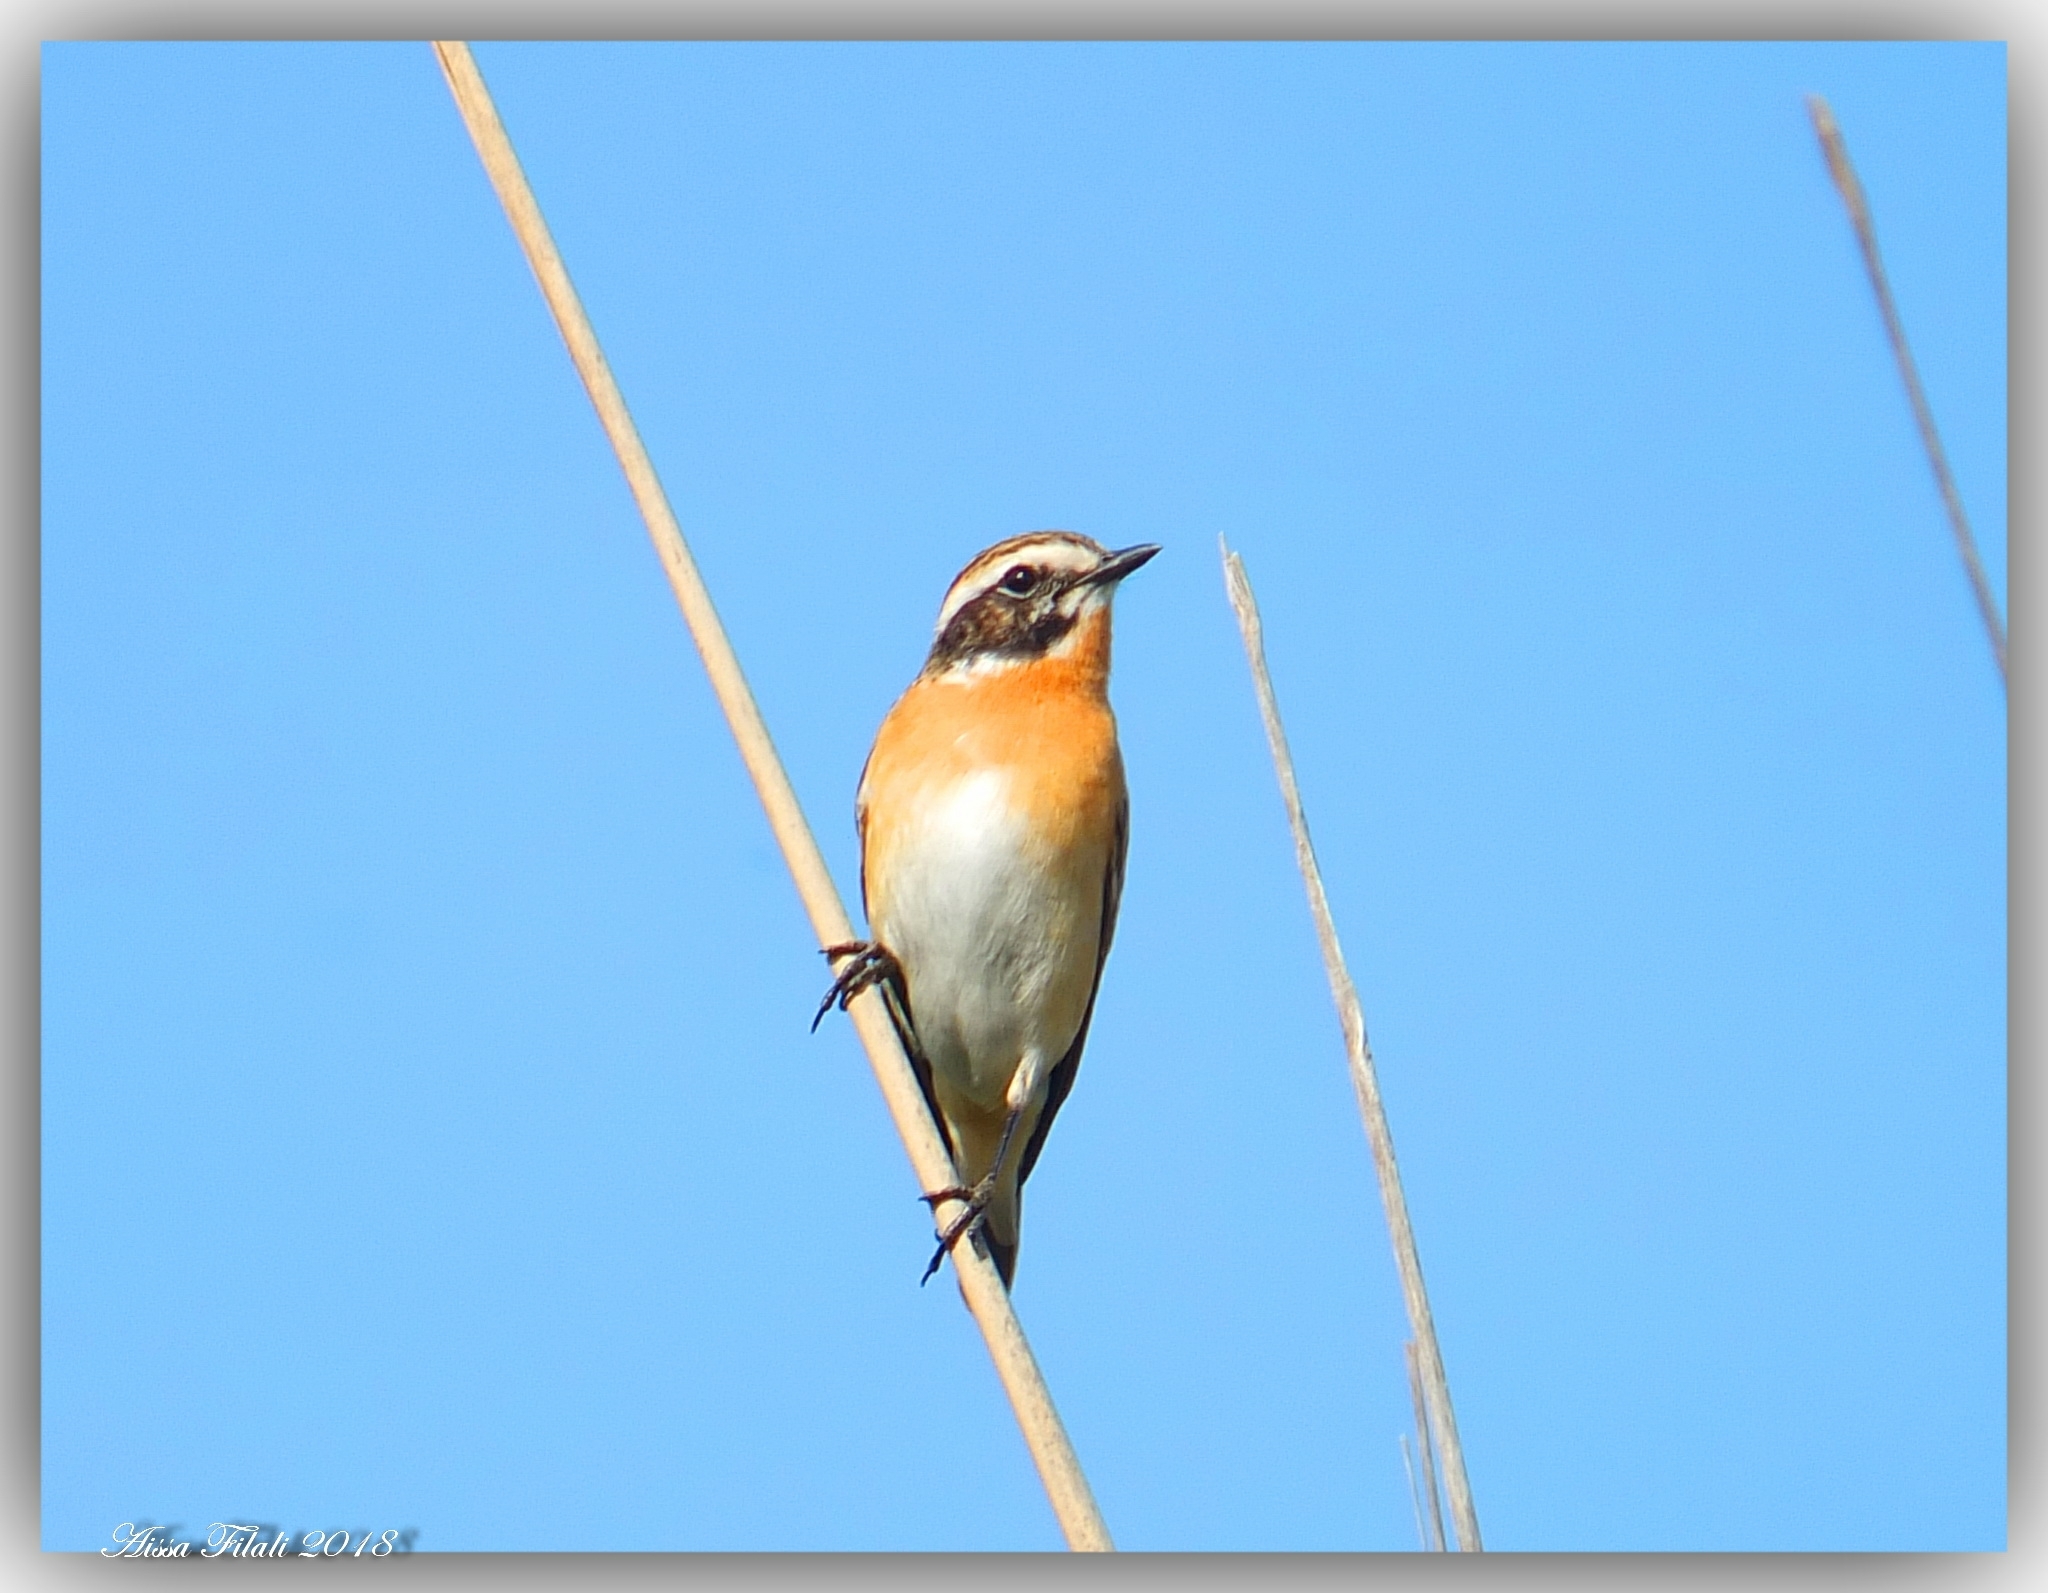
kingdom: Animalia
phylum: Chordata
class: Aves
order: Passeriformes
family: Muscicapidae
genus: Saxicola
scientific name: Saxicola rubetra
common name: Whinchat
